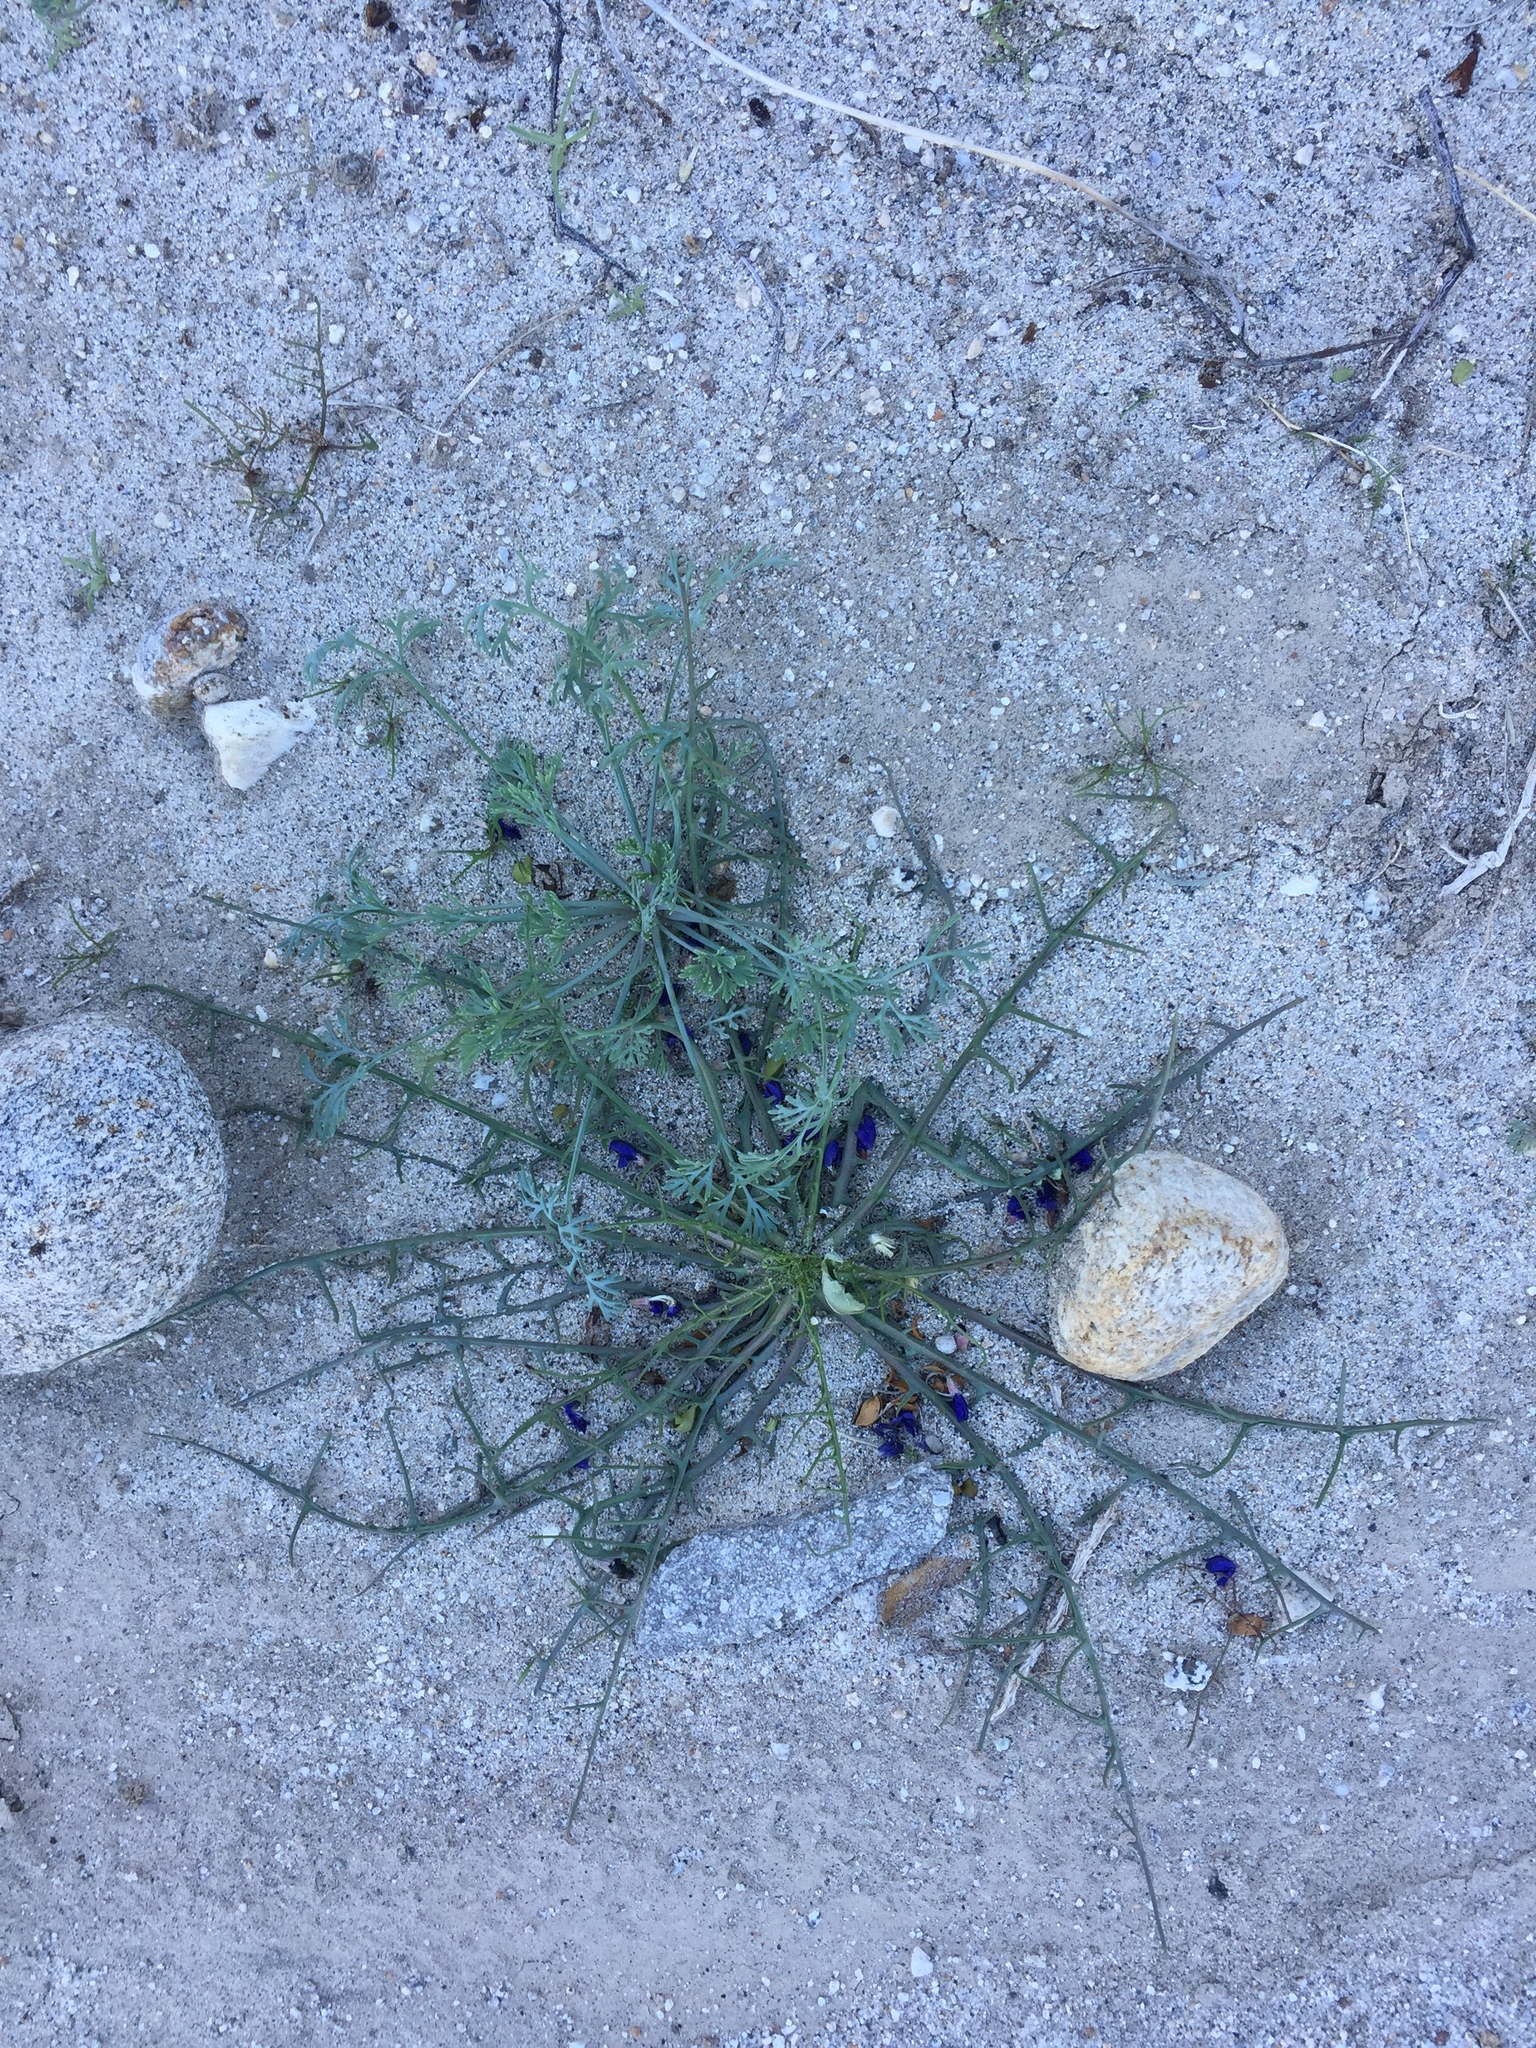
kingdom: Plantae
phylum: Tracheophyta
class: Magnoliopsida
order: Asterales
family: Asteraceae
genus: Calycoseris
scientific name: Calycoseris wrightii
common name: White tackstem
